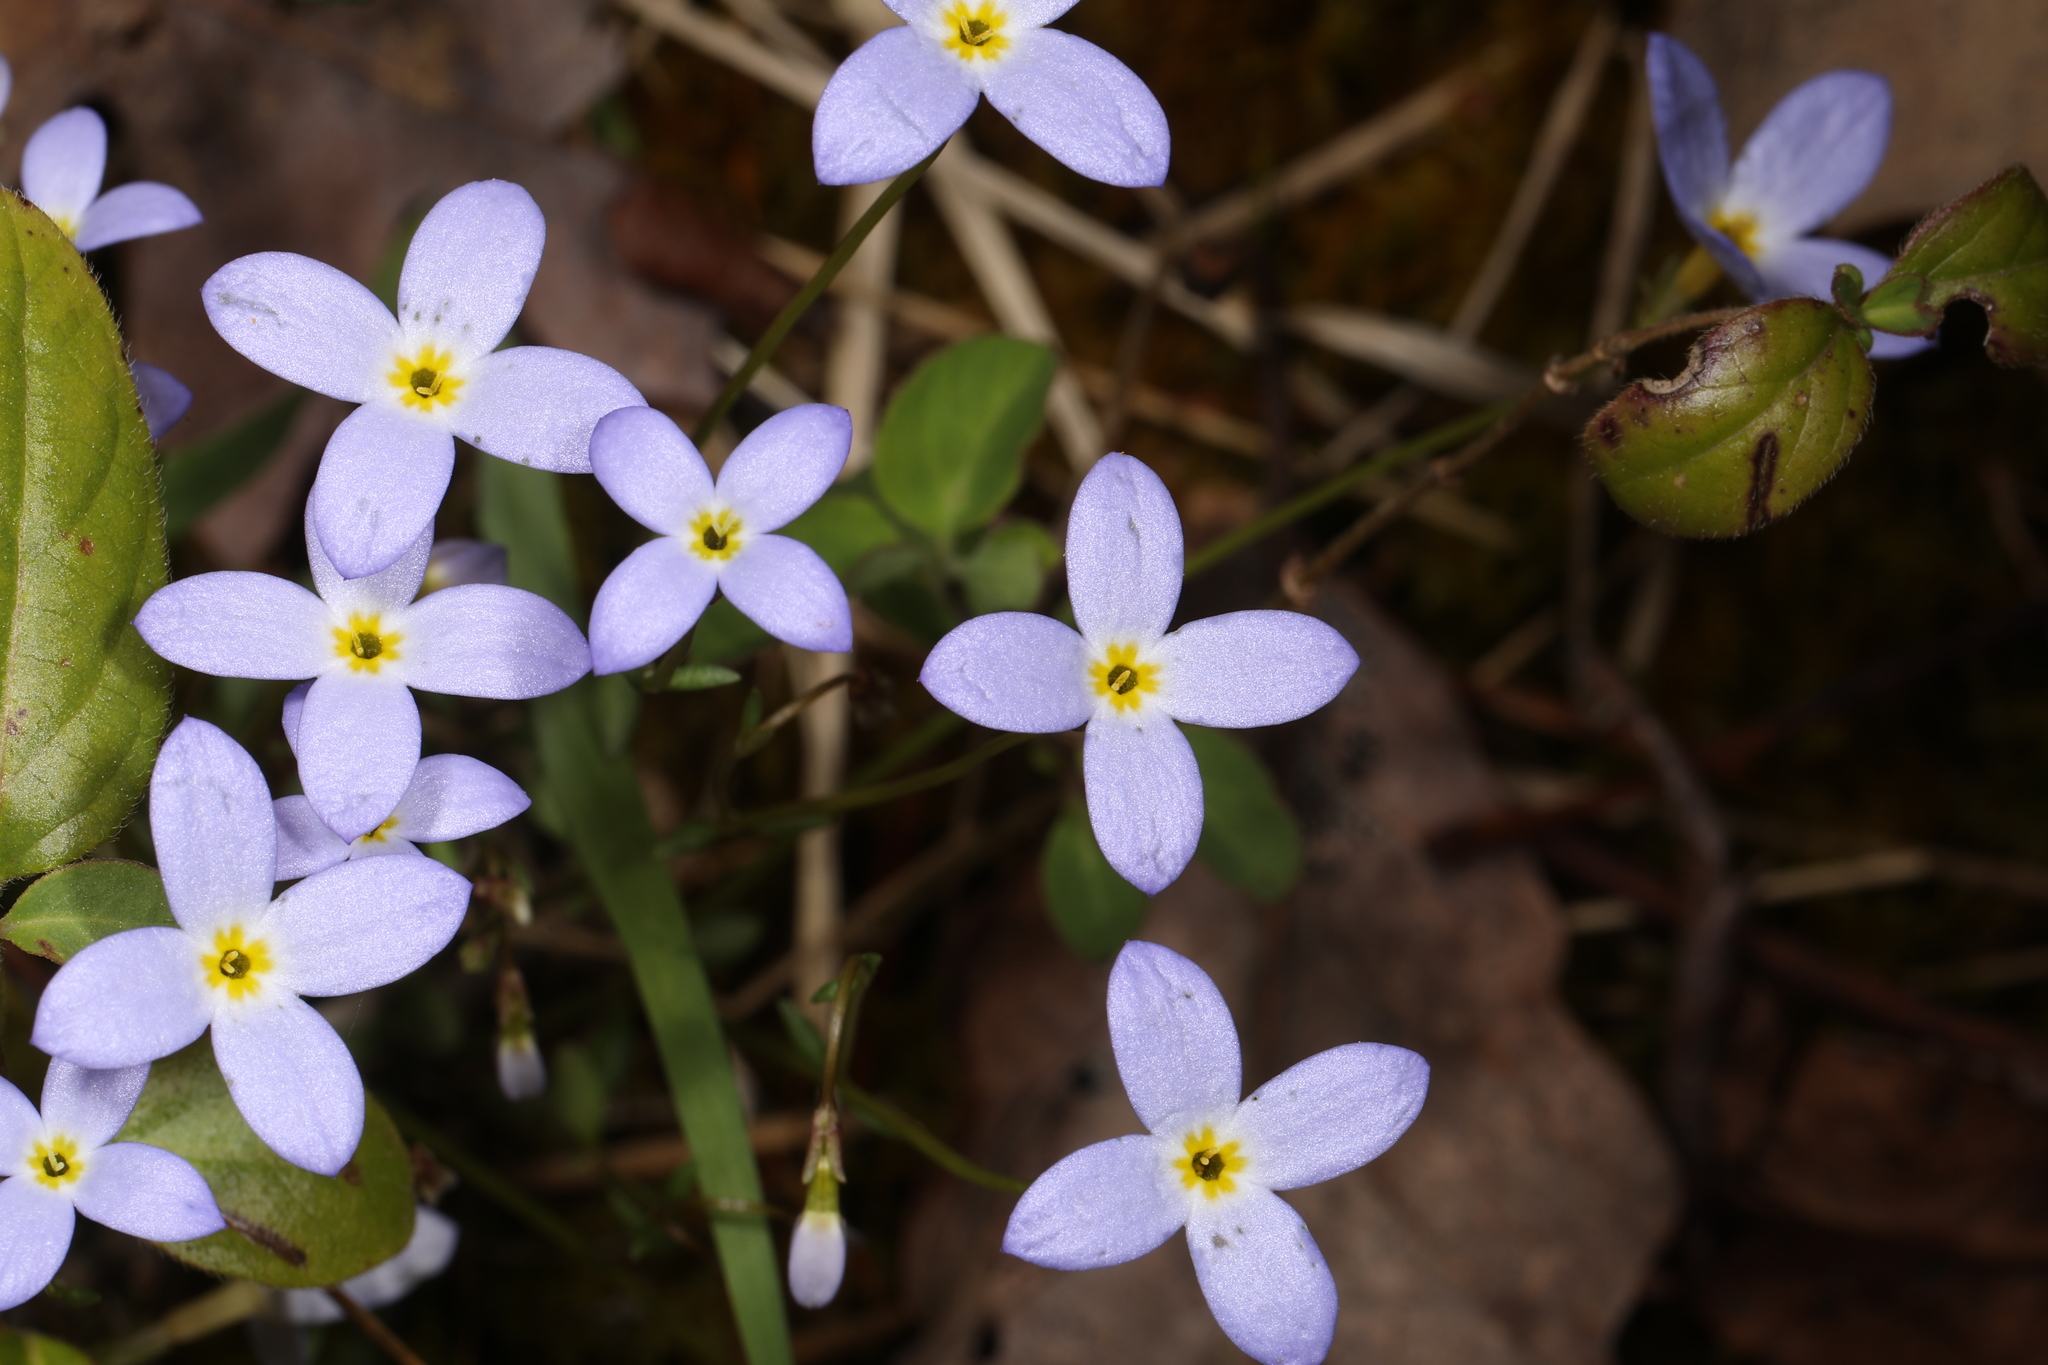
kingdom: Plantae
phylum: Tracheophyta
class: Magnoliopsida
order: Gentianales
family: Rubiaceae
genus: Houstonia
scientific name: Houstonia caerulea
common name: Bluets
